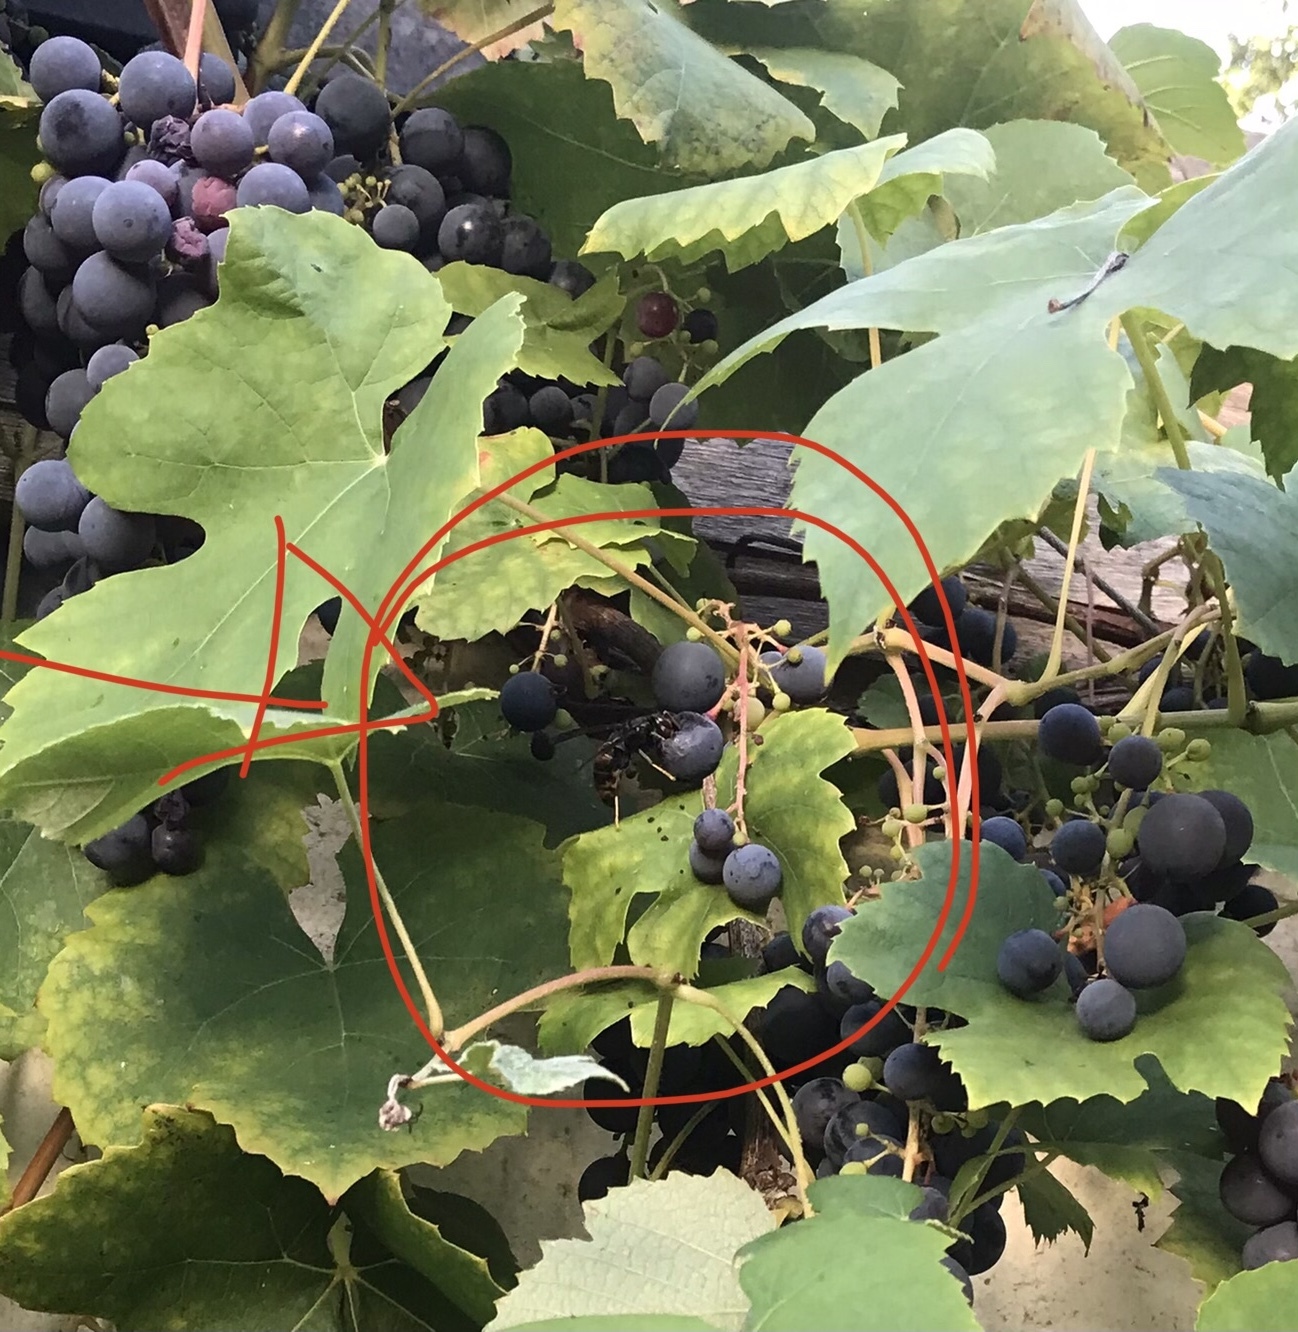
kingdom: Animalia
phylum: Arthropoda
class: Insecta
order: Hymenoptera
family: Vespidae
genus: Vespa
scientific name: Vespa velutina
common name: Asian hornet
